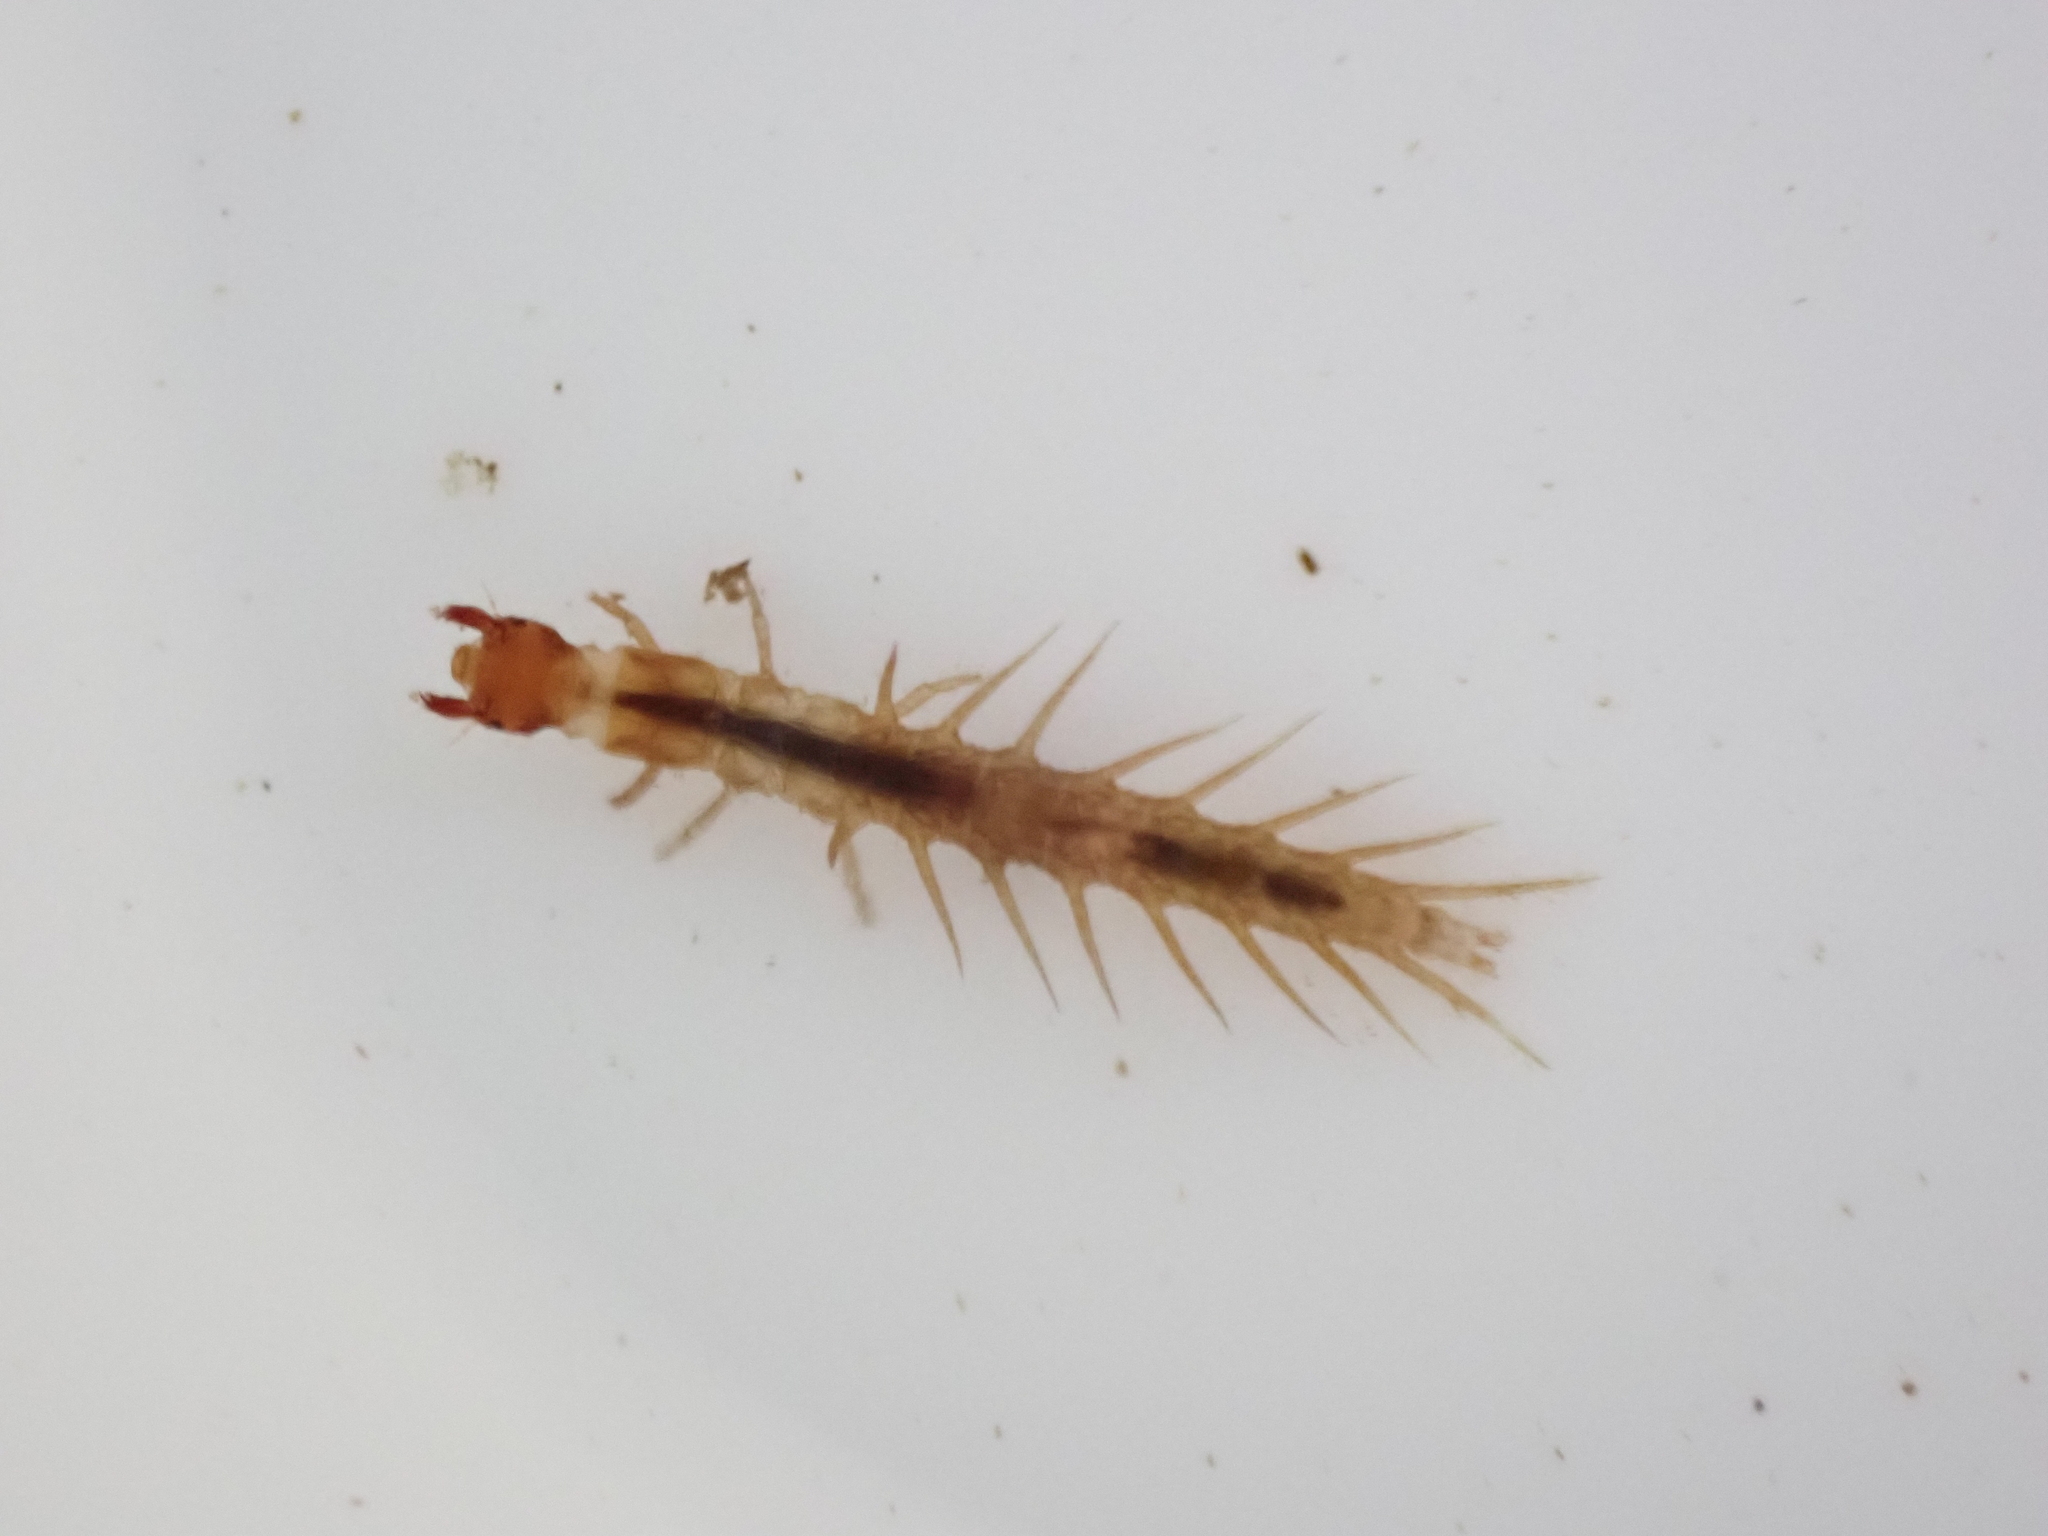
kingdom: Animalia
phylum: Arthropoda
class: Insecta
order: Megaloptera
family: Corydalidae
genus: Archichauliodes
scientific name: Archichauliodes diversus
